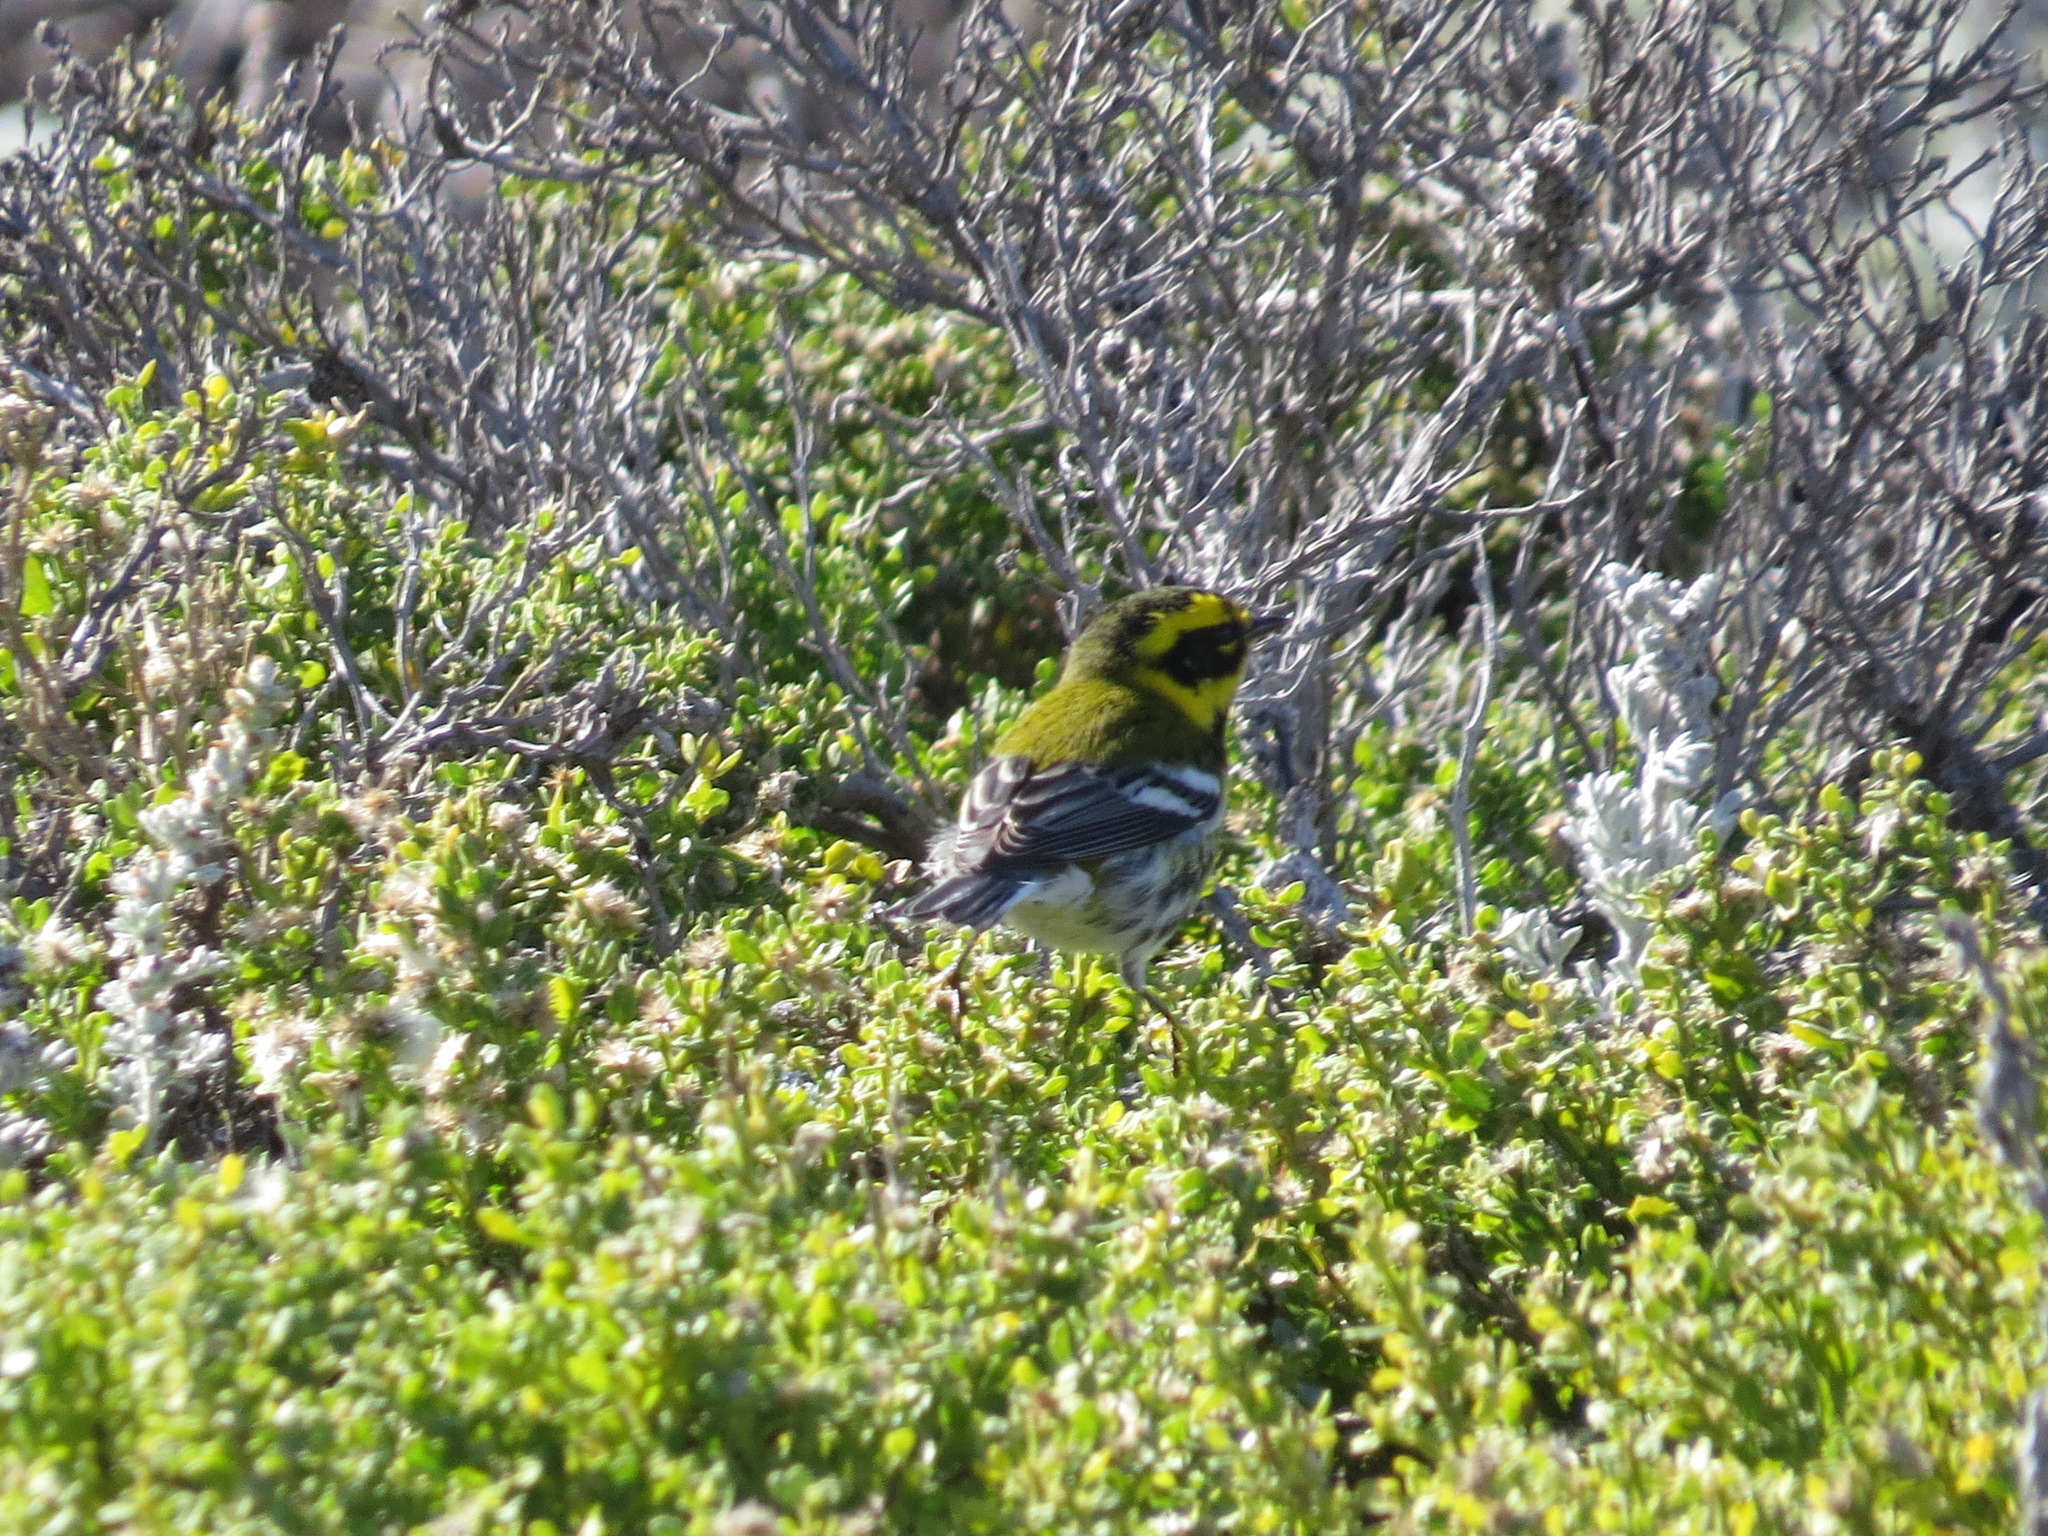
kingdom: Animalia
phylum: Chordata
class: Aves
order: Passeriformes
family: Parulidae
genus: Setophaga
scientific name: Setophaga townsendi
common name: Townsend's warbler
